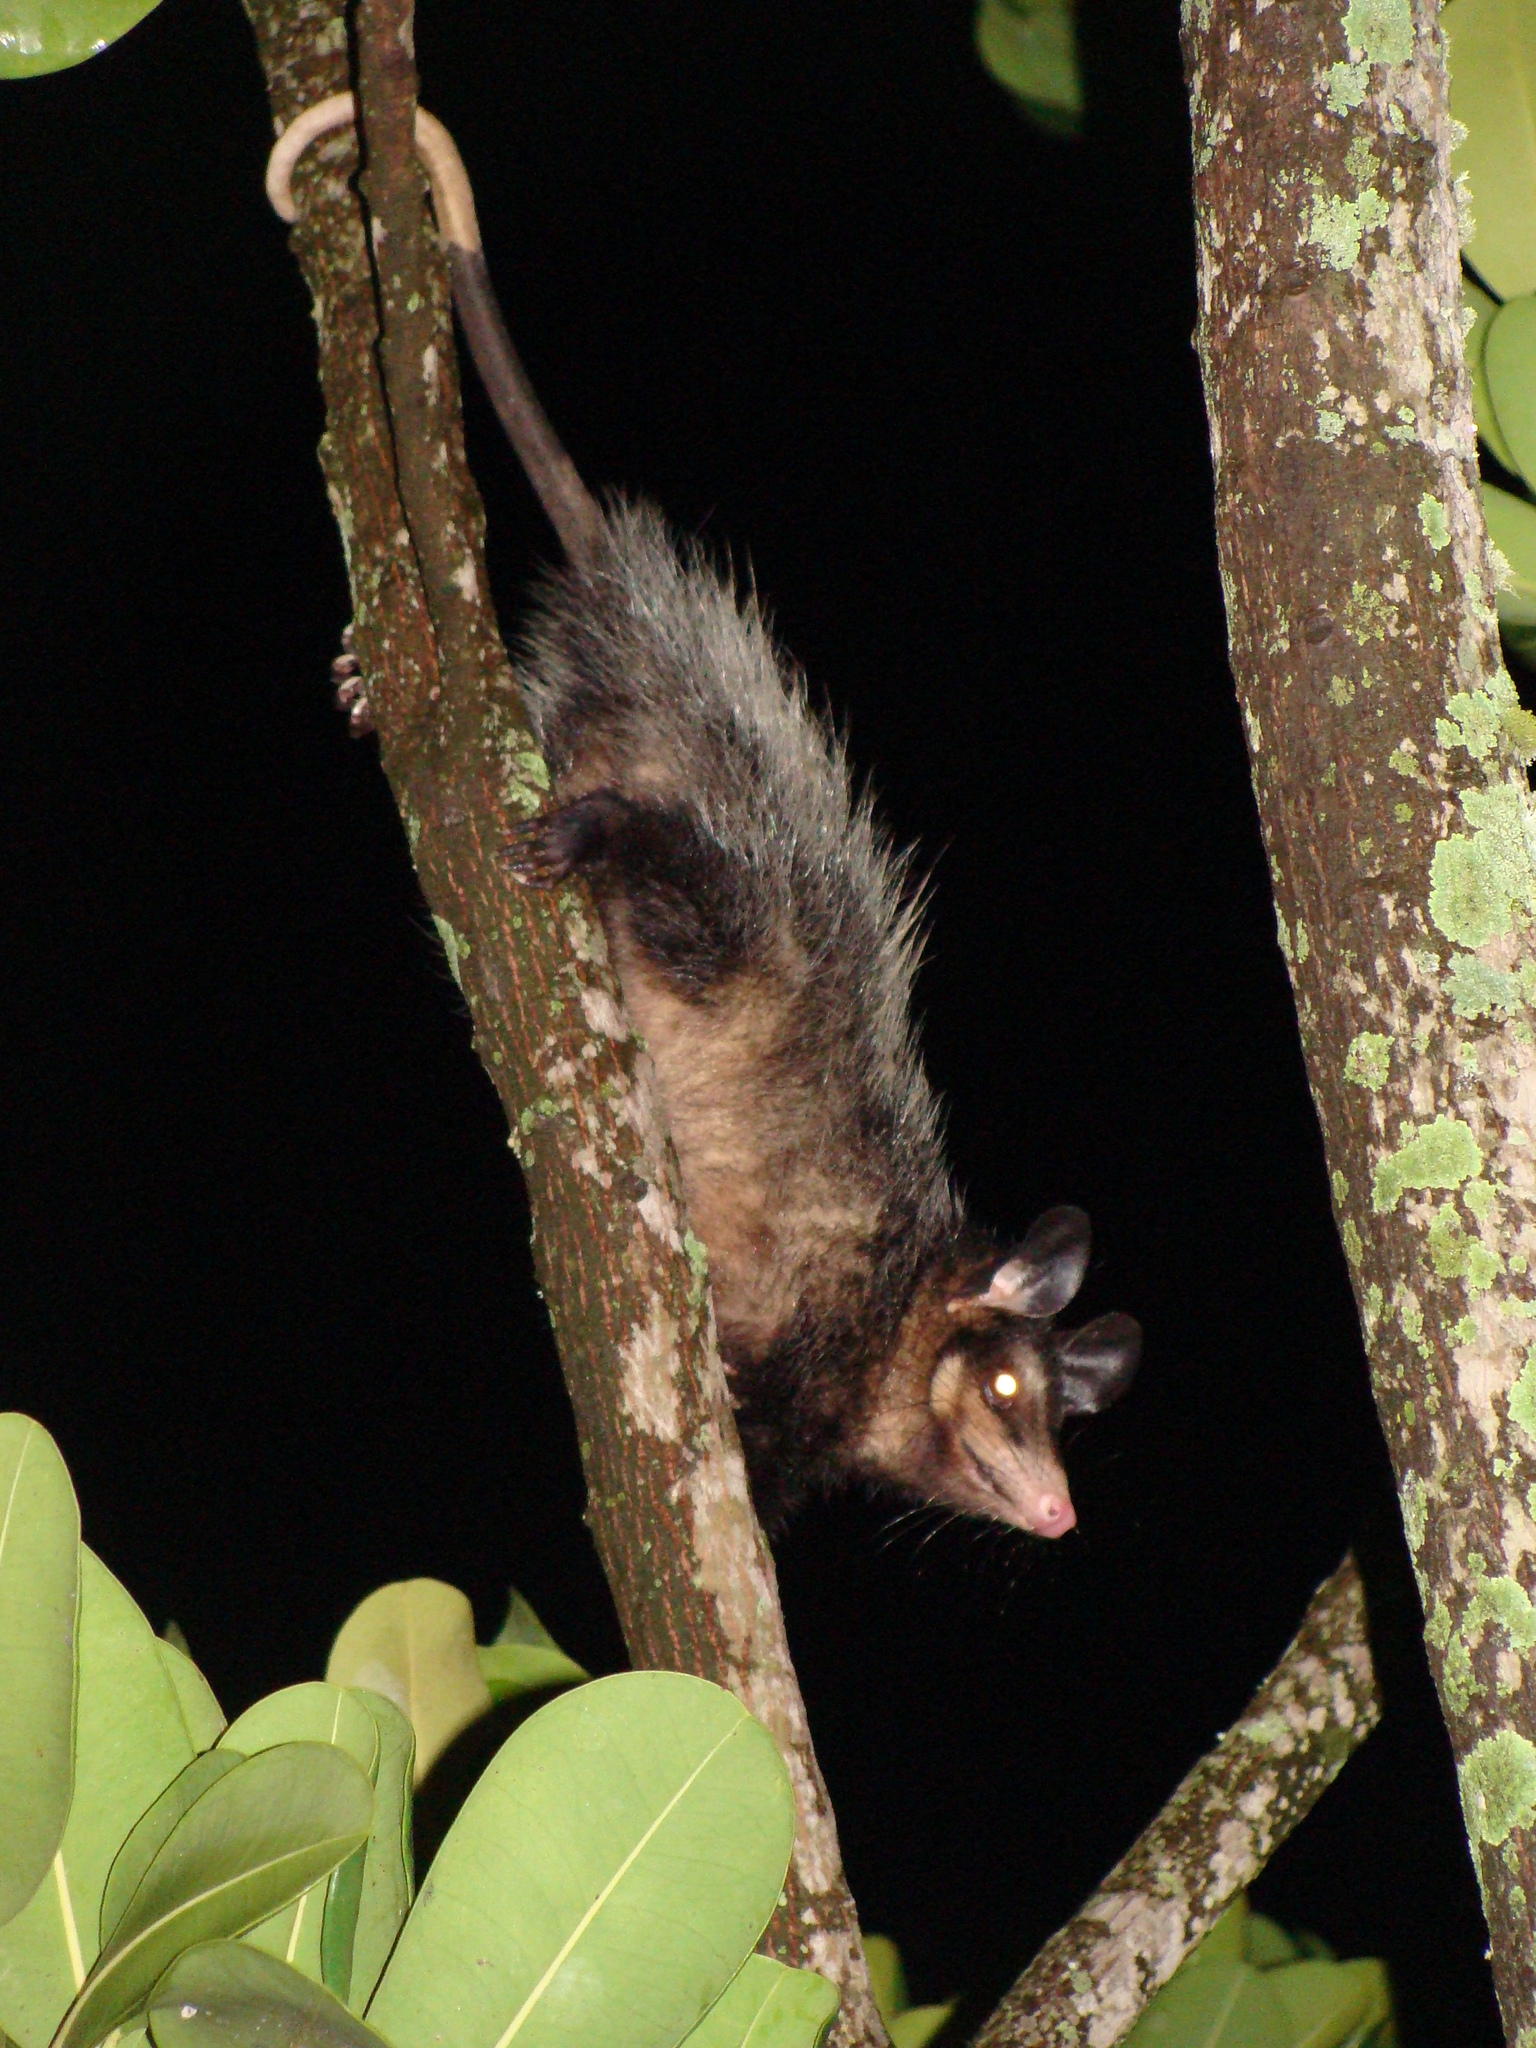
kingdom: Animalia
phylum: Chordata
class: Mammalia
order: Didelphimorphia
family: Didelphidae
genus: Didelphis
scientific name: Didelphis aurita
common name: Big-eared opossum
